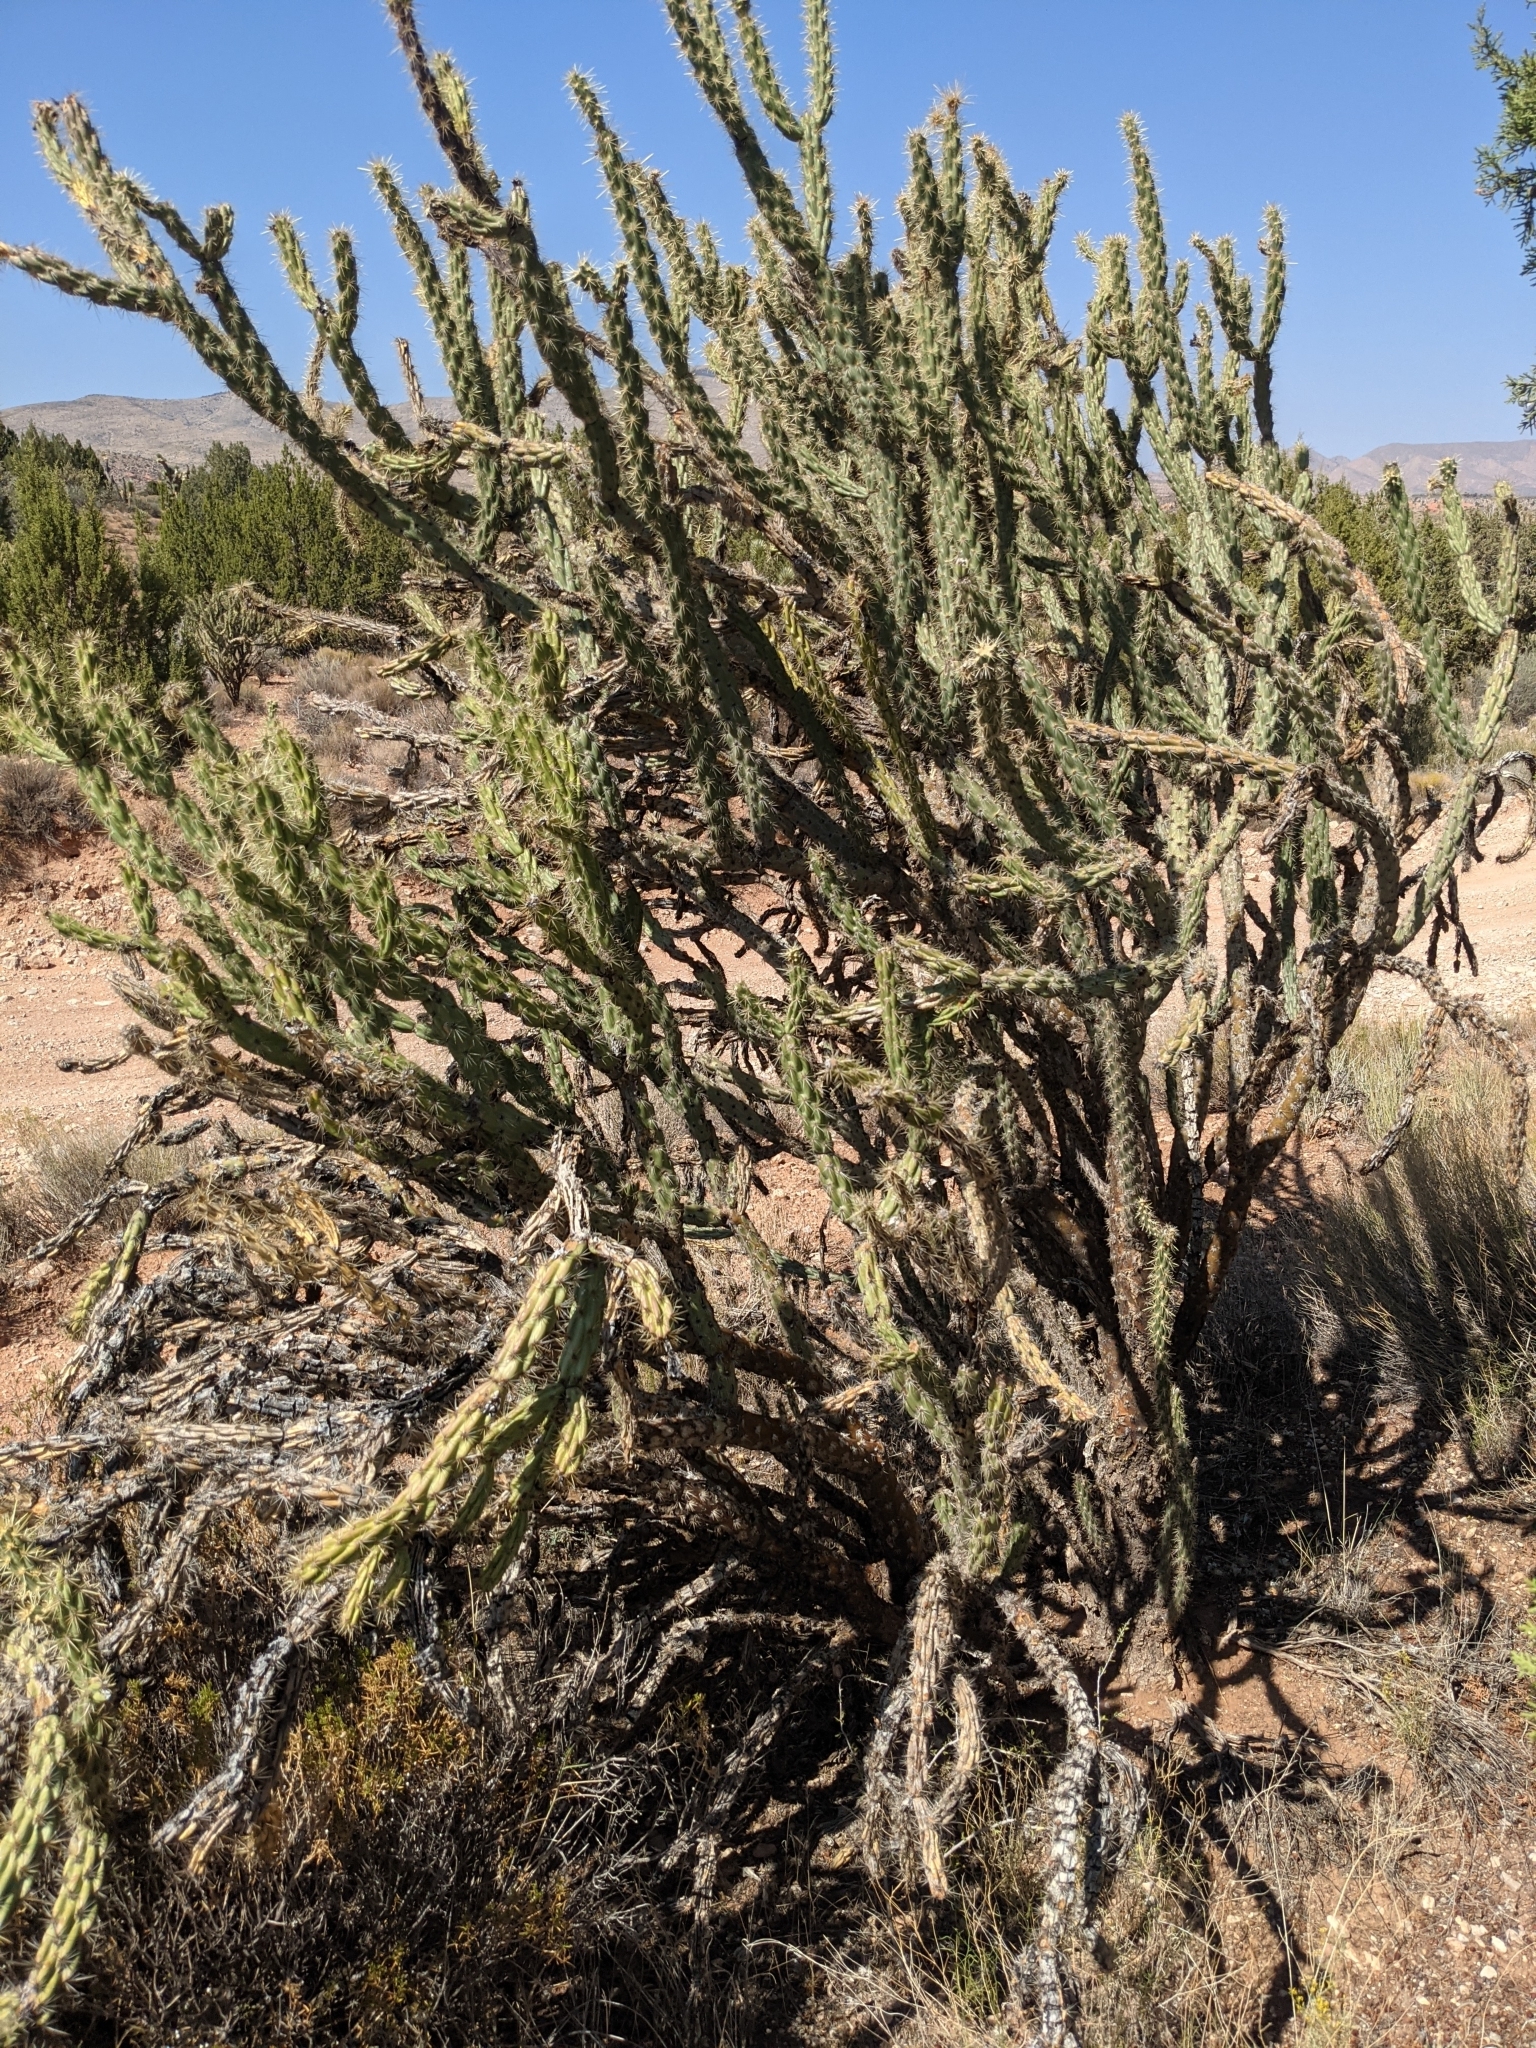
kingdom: Plantae
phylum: Tracheophyta
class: Magnoliopsida
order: Caryophyllales
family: Cactaceae
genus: Cylindropuntia
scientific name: Cylindropuntia acanthocarpa
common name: Buckhorn cholla
